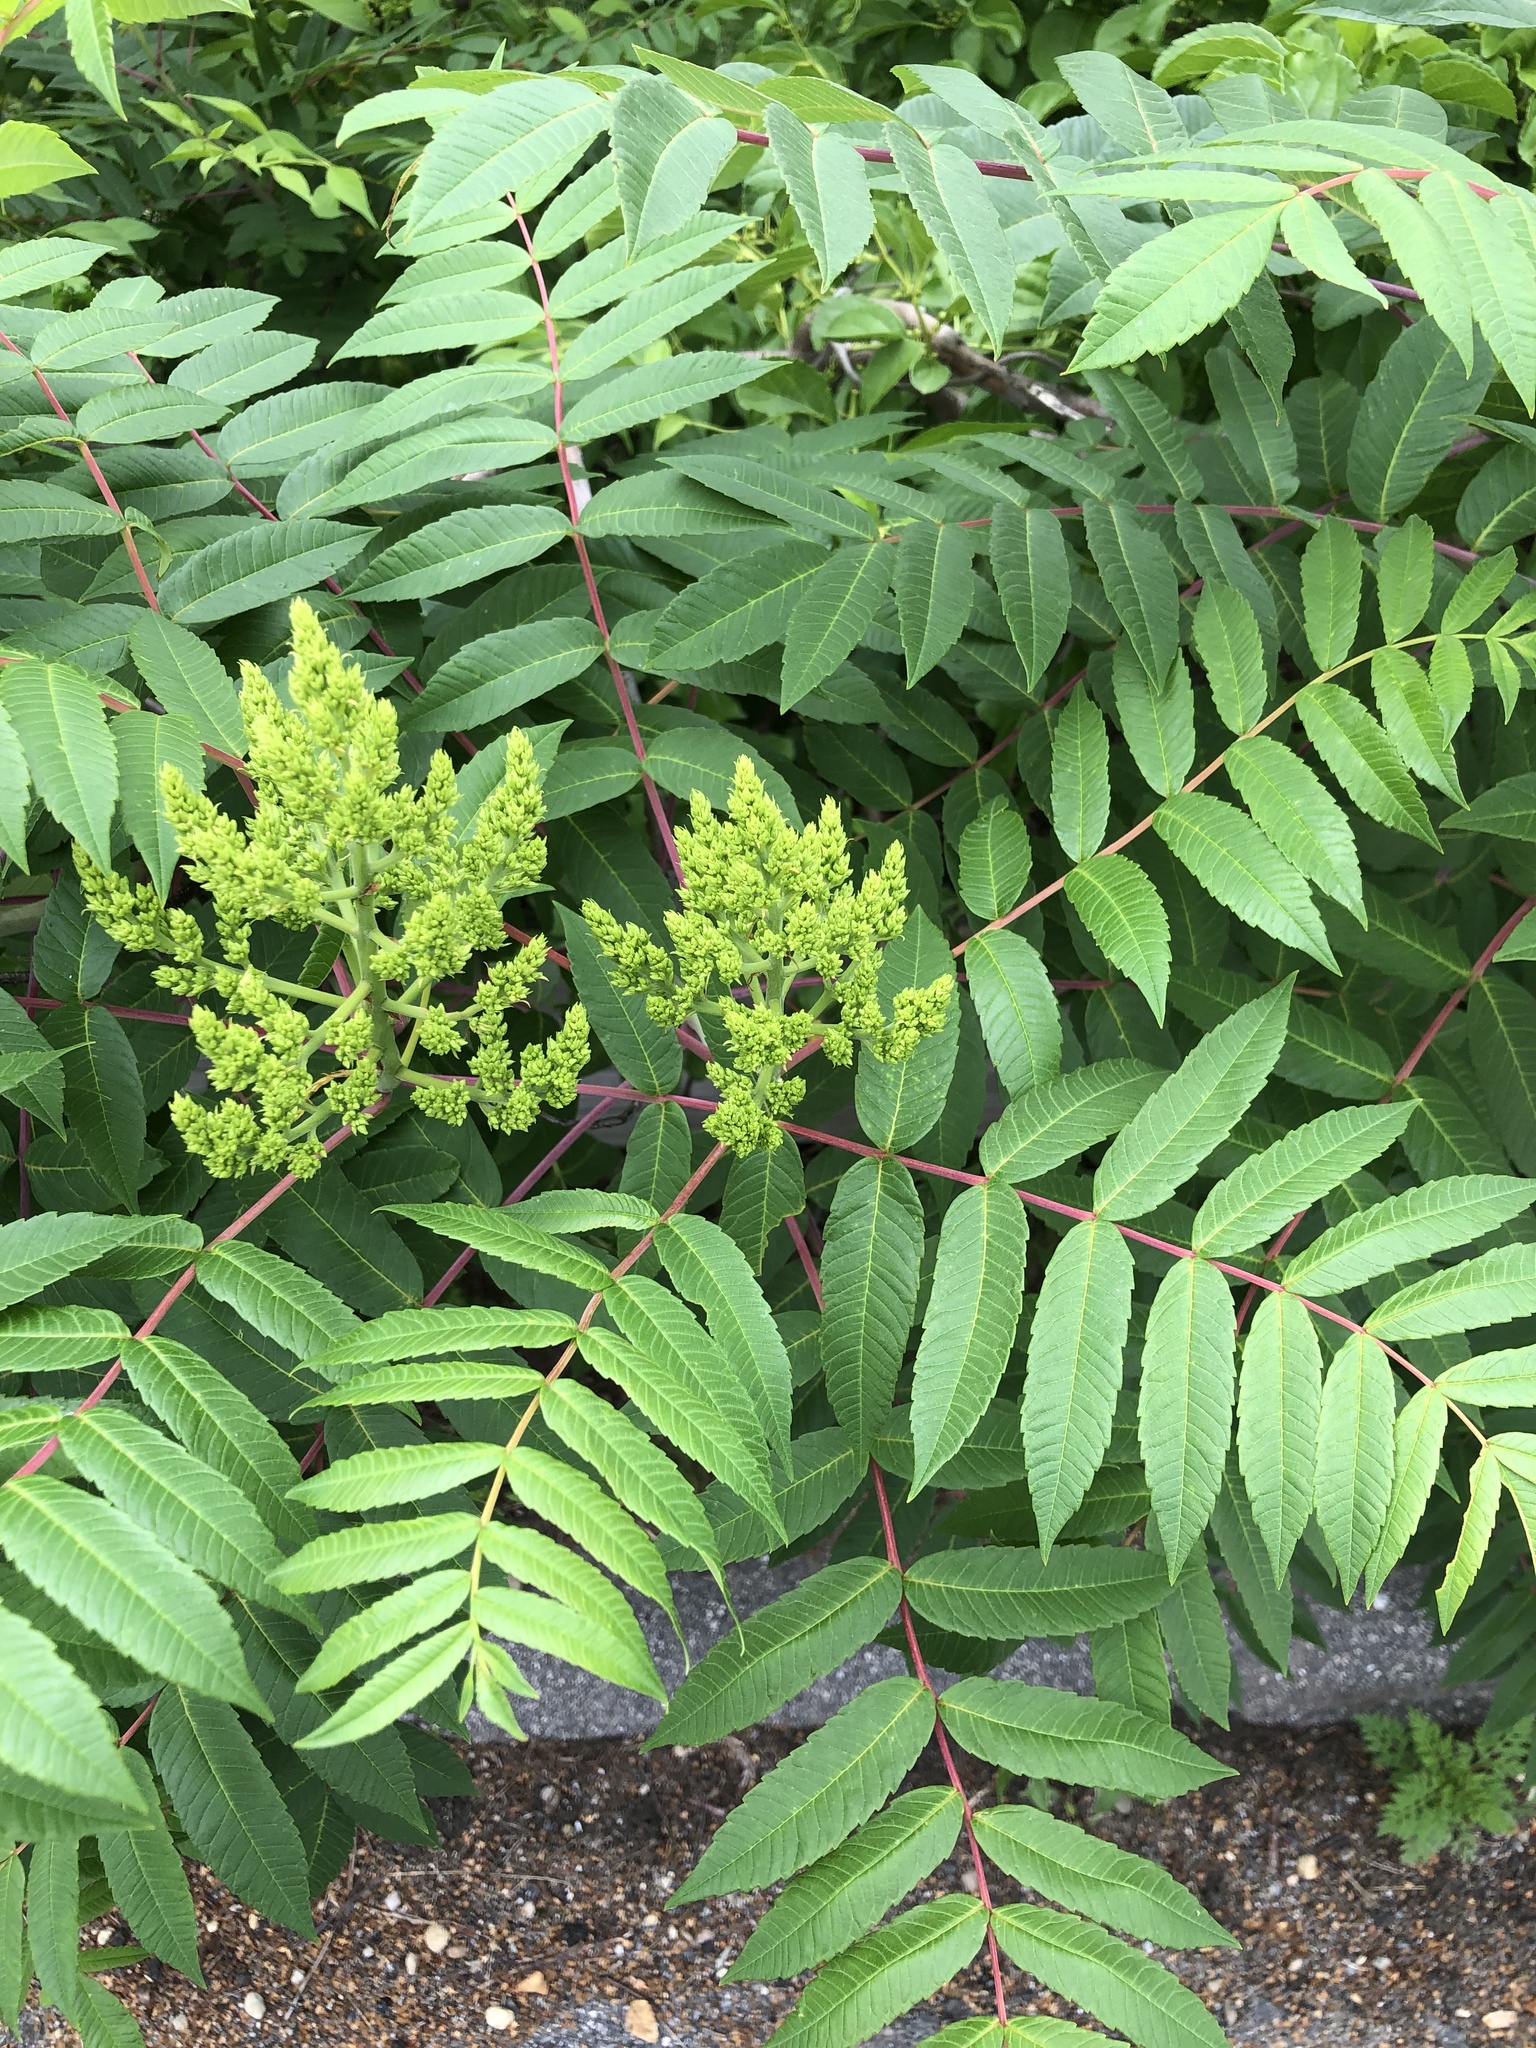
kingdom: Plantae
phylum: Tracheophyta
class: Magnoliopsida
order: Sapindales
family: Anacardiaceae
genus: Rhus
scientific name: Rhus glabra
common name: Scarlet sumac
